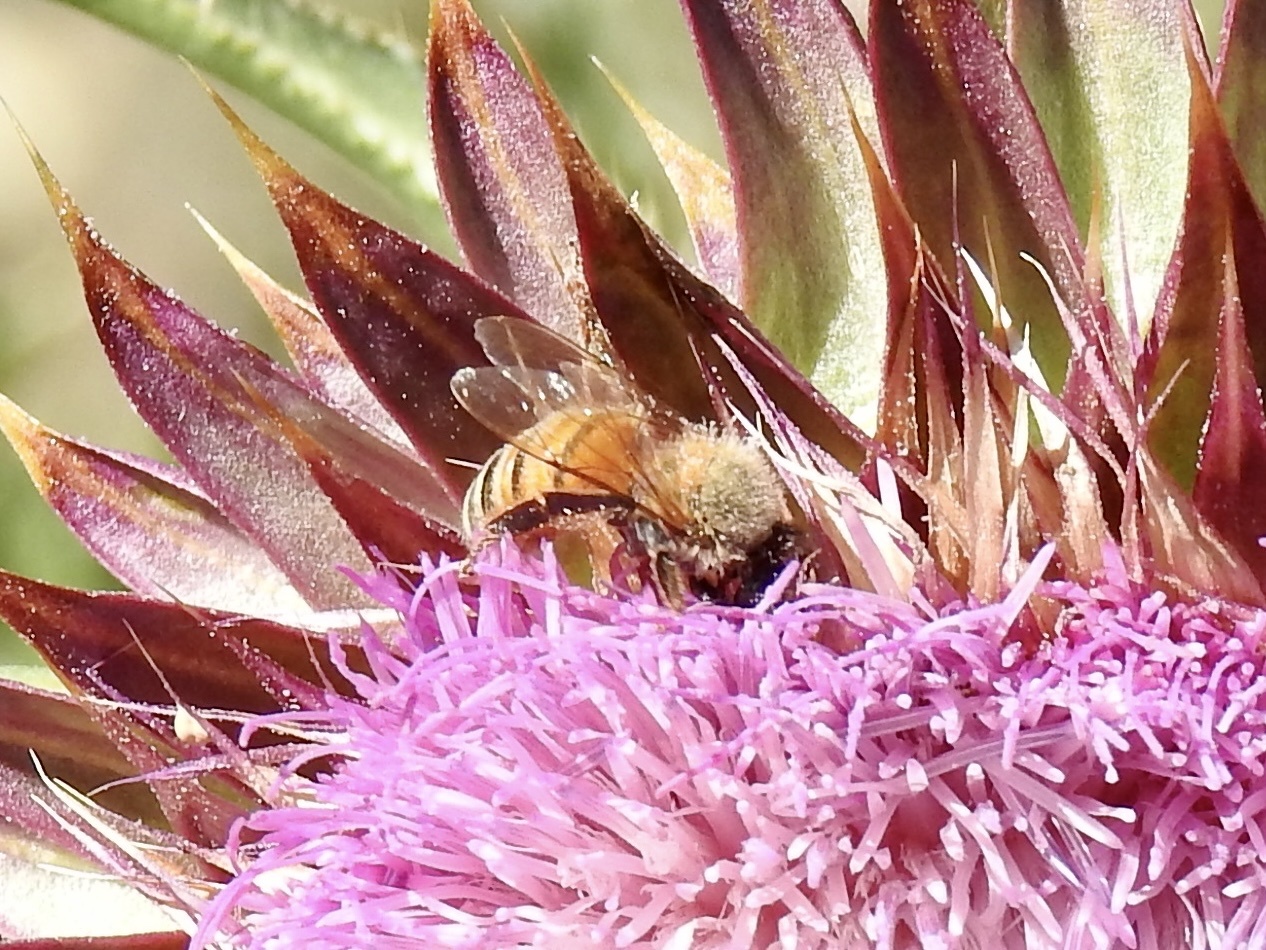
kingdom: Animalia
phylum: Arthropoda
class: Insecta
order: Hymenoptera
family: Apidae
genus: Apis
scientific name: Apis mellifera
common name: Honey bee
